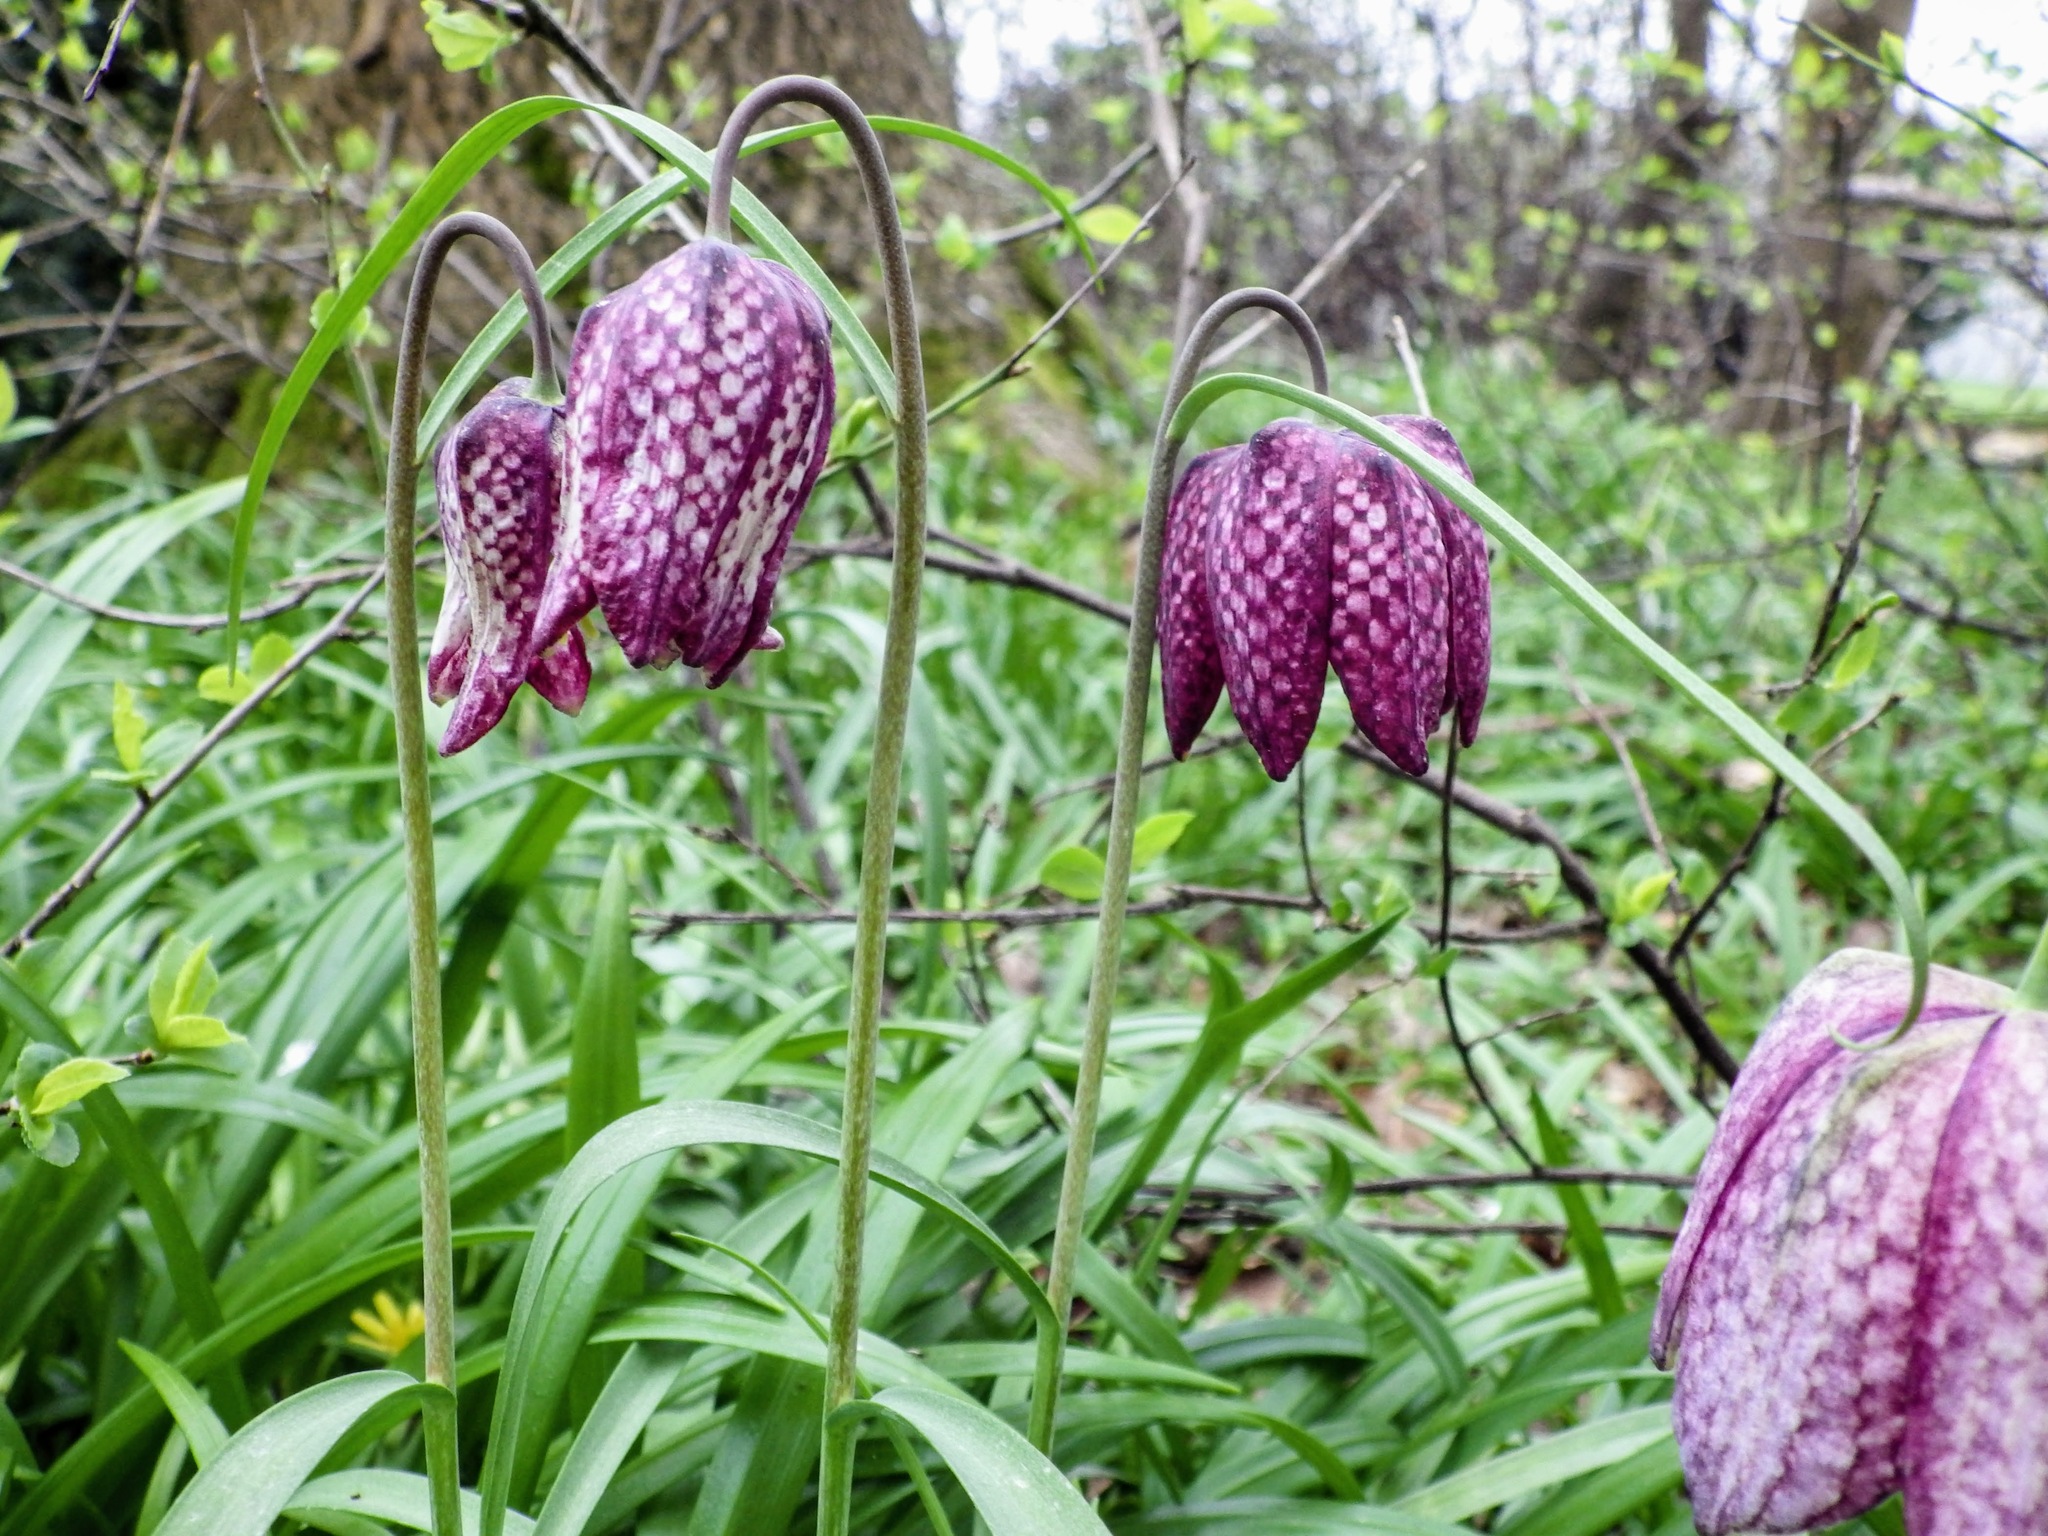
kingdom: Plantae
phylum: Tracheophyta
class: Liliopsida
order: Liliales
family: Liliaceae
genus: Fritillaria
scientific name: Fritillaria meleagris
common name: Fritillary
